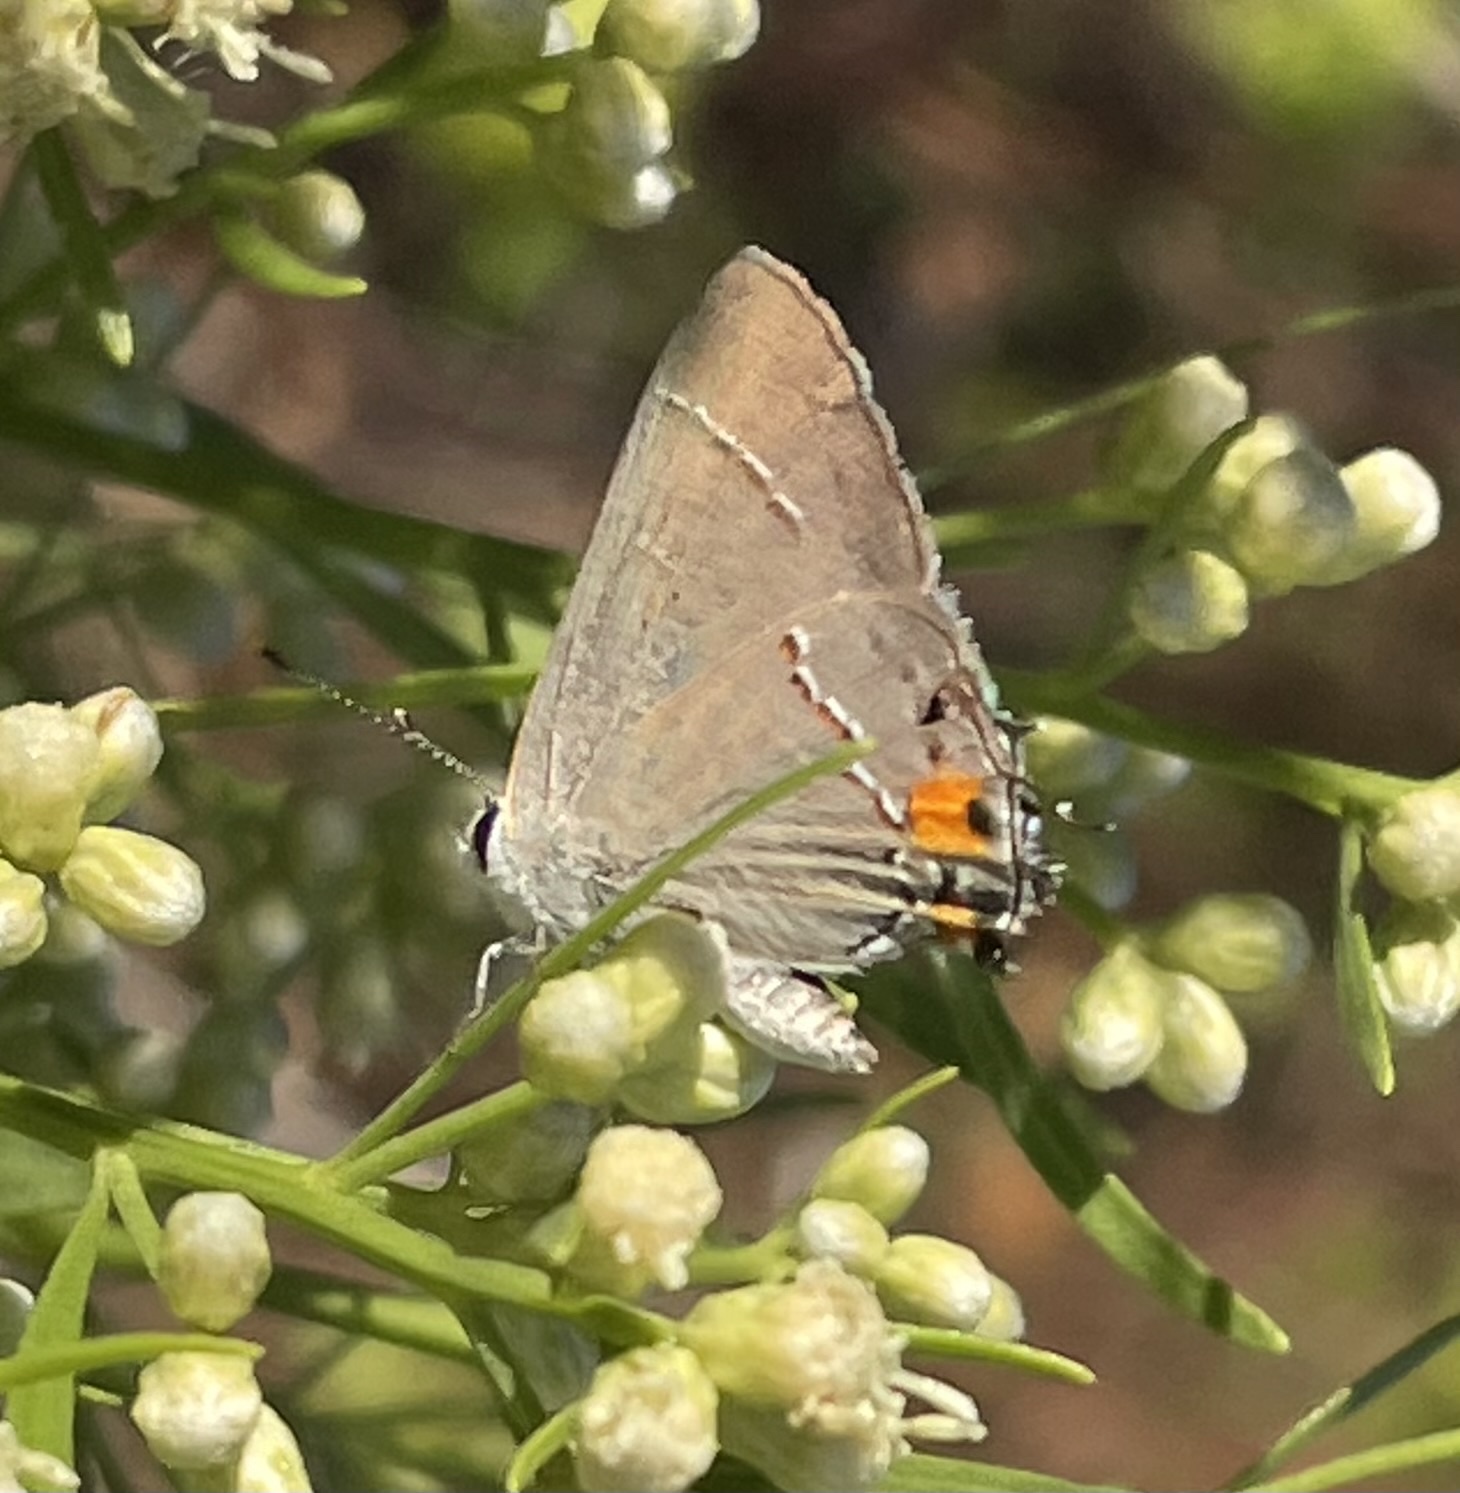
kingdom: Animalia
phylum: Arthropoda
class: Insecta
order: Lepidoptera
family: Lycaenidae
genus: Strymon
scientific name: Strymon melinus
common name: Gray hairstreak
